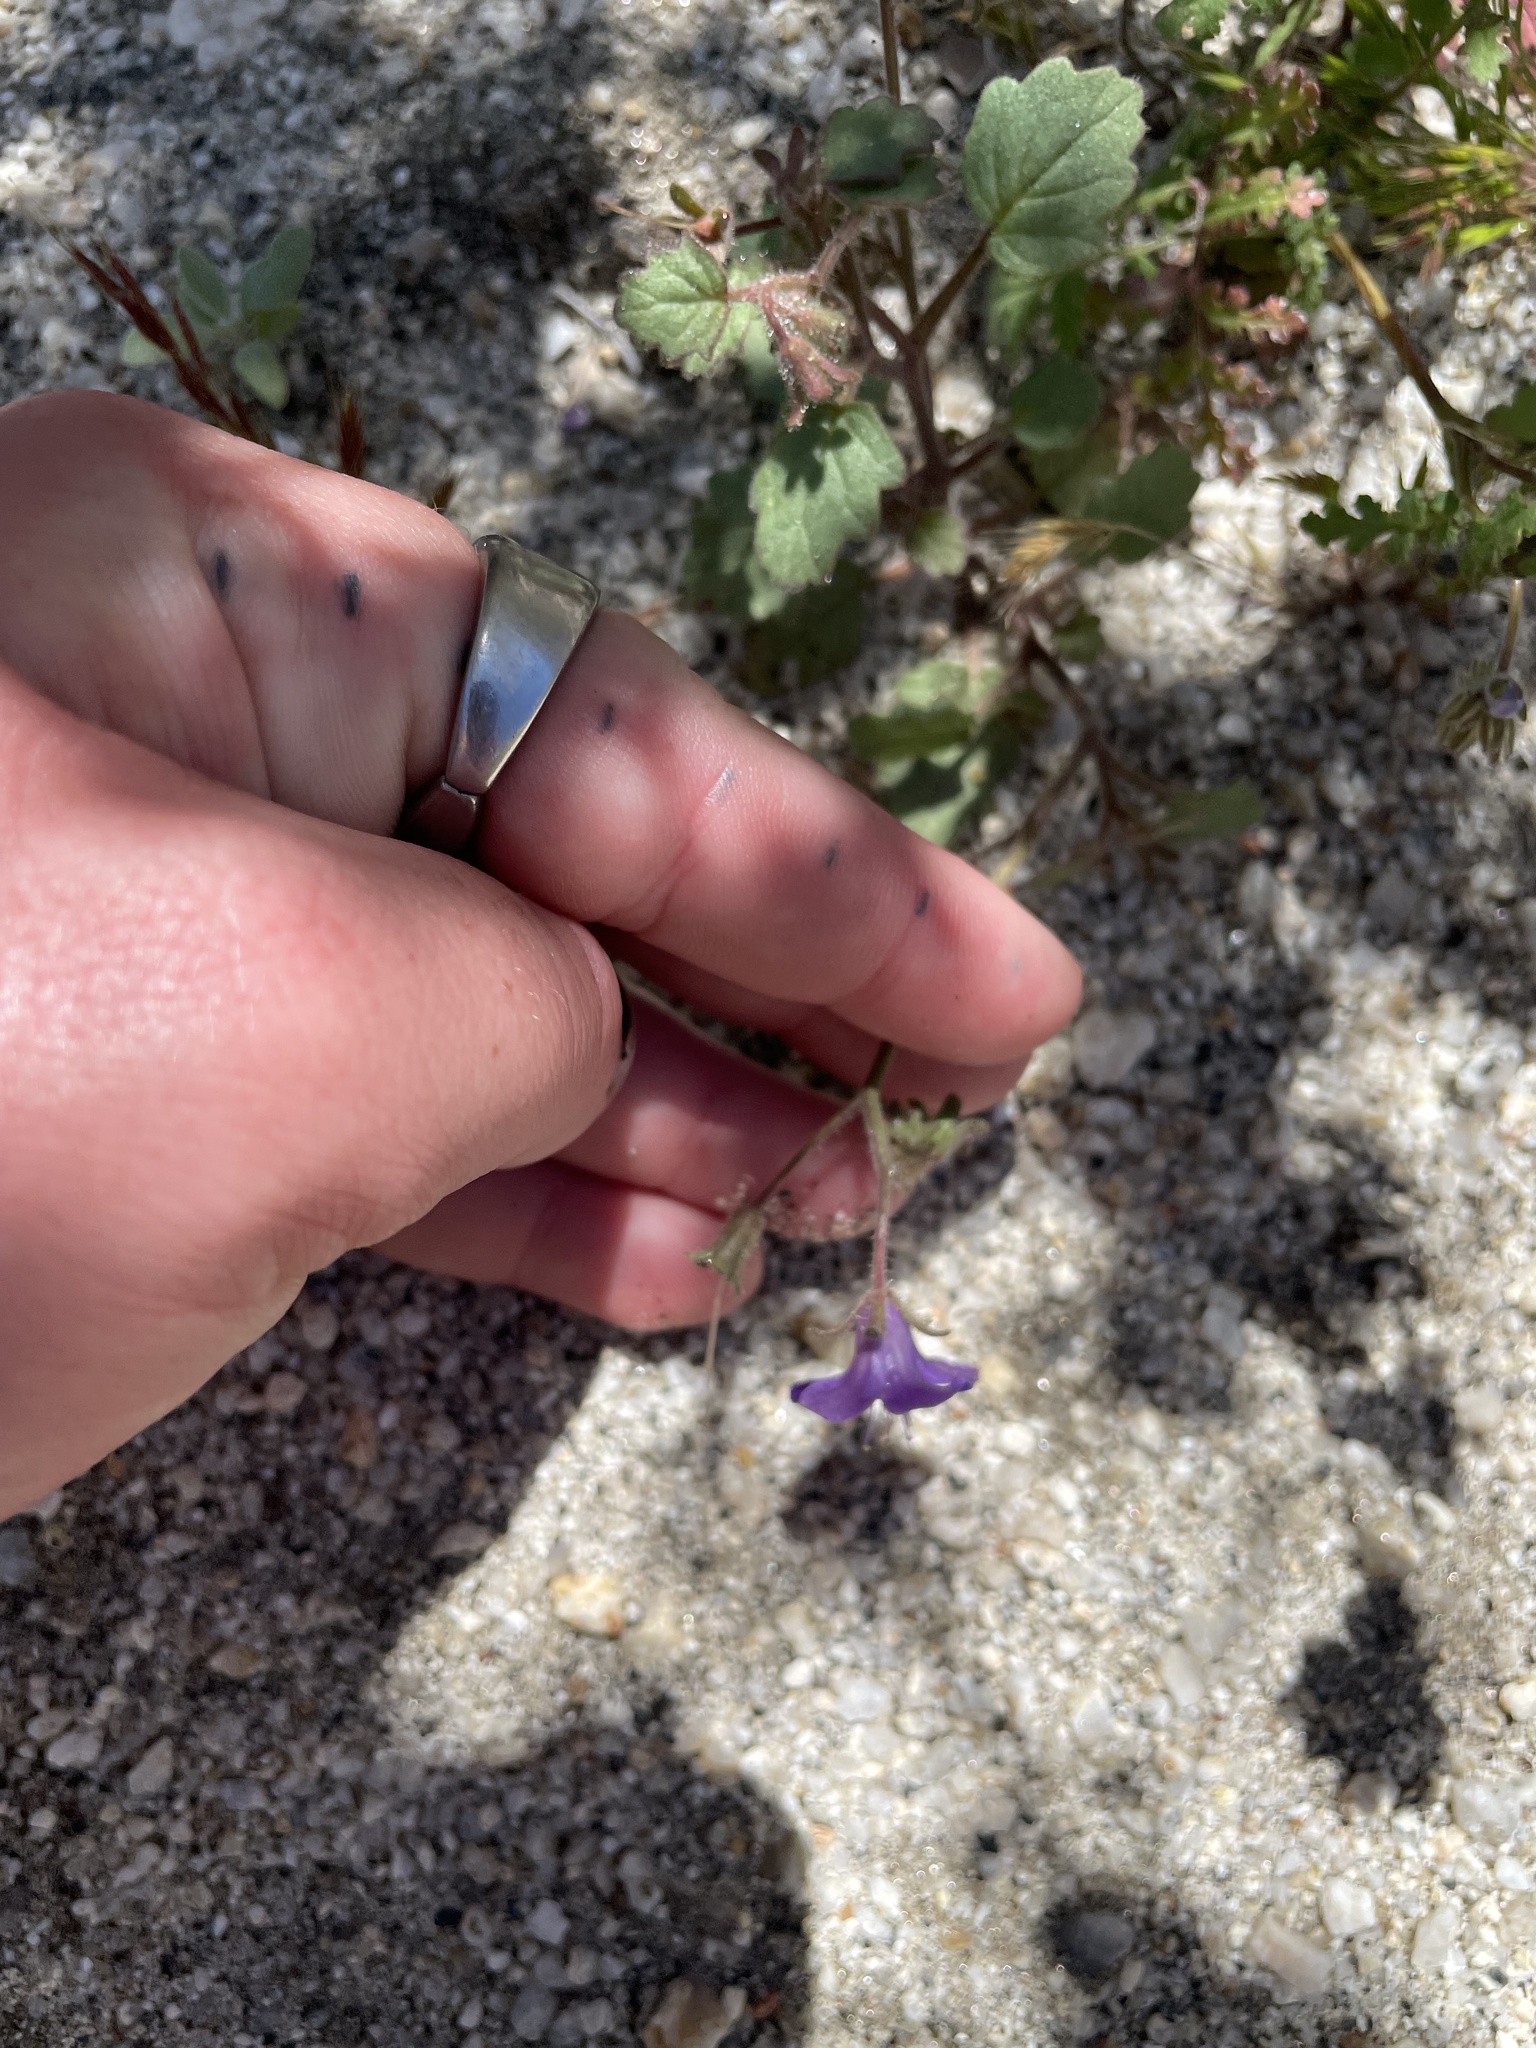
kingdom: Plantae
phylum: Tracheophyta
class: Magnoliopsida
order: Boraginales
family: Hydrophyllaceae
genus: Phacelia
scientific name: Phacelia minor
